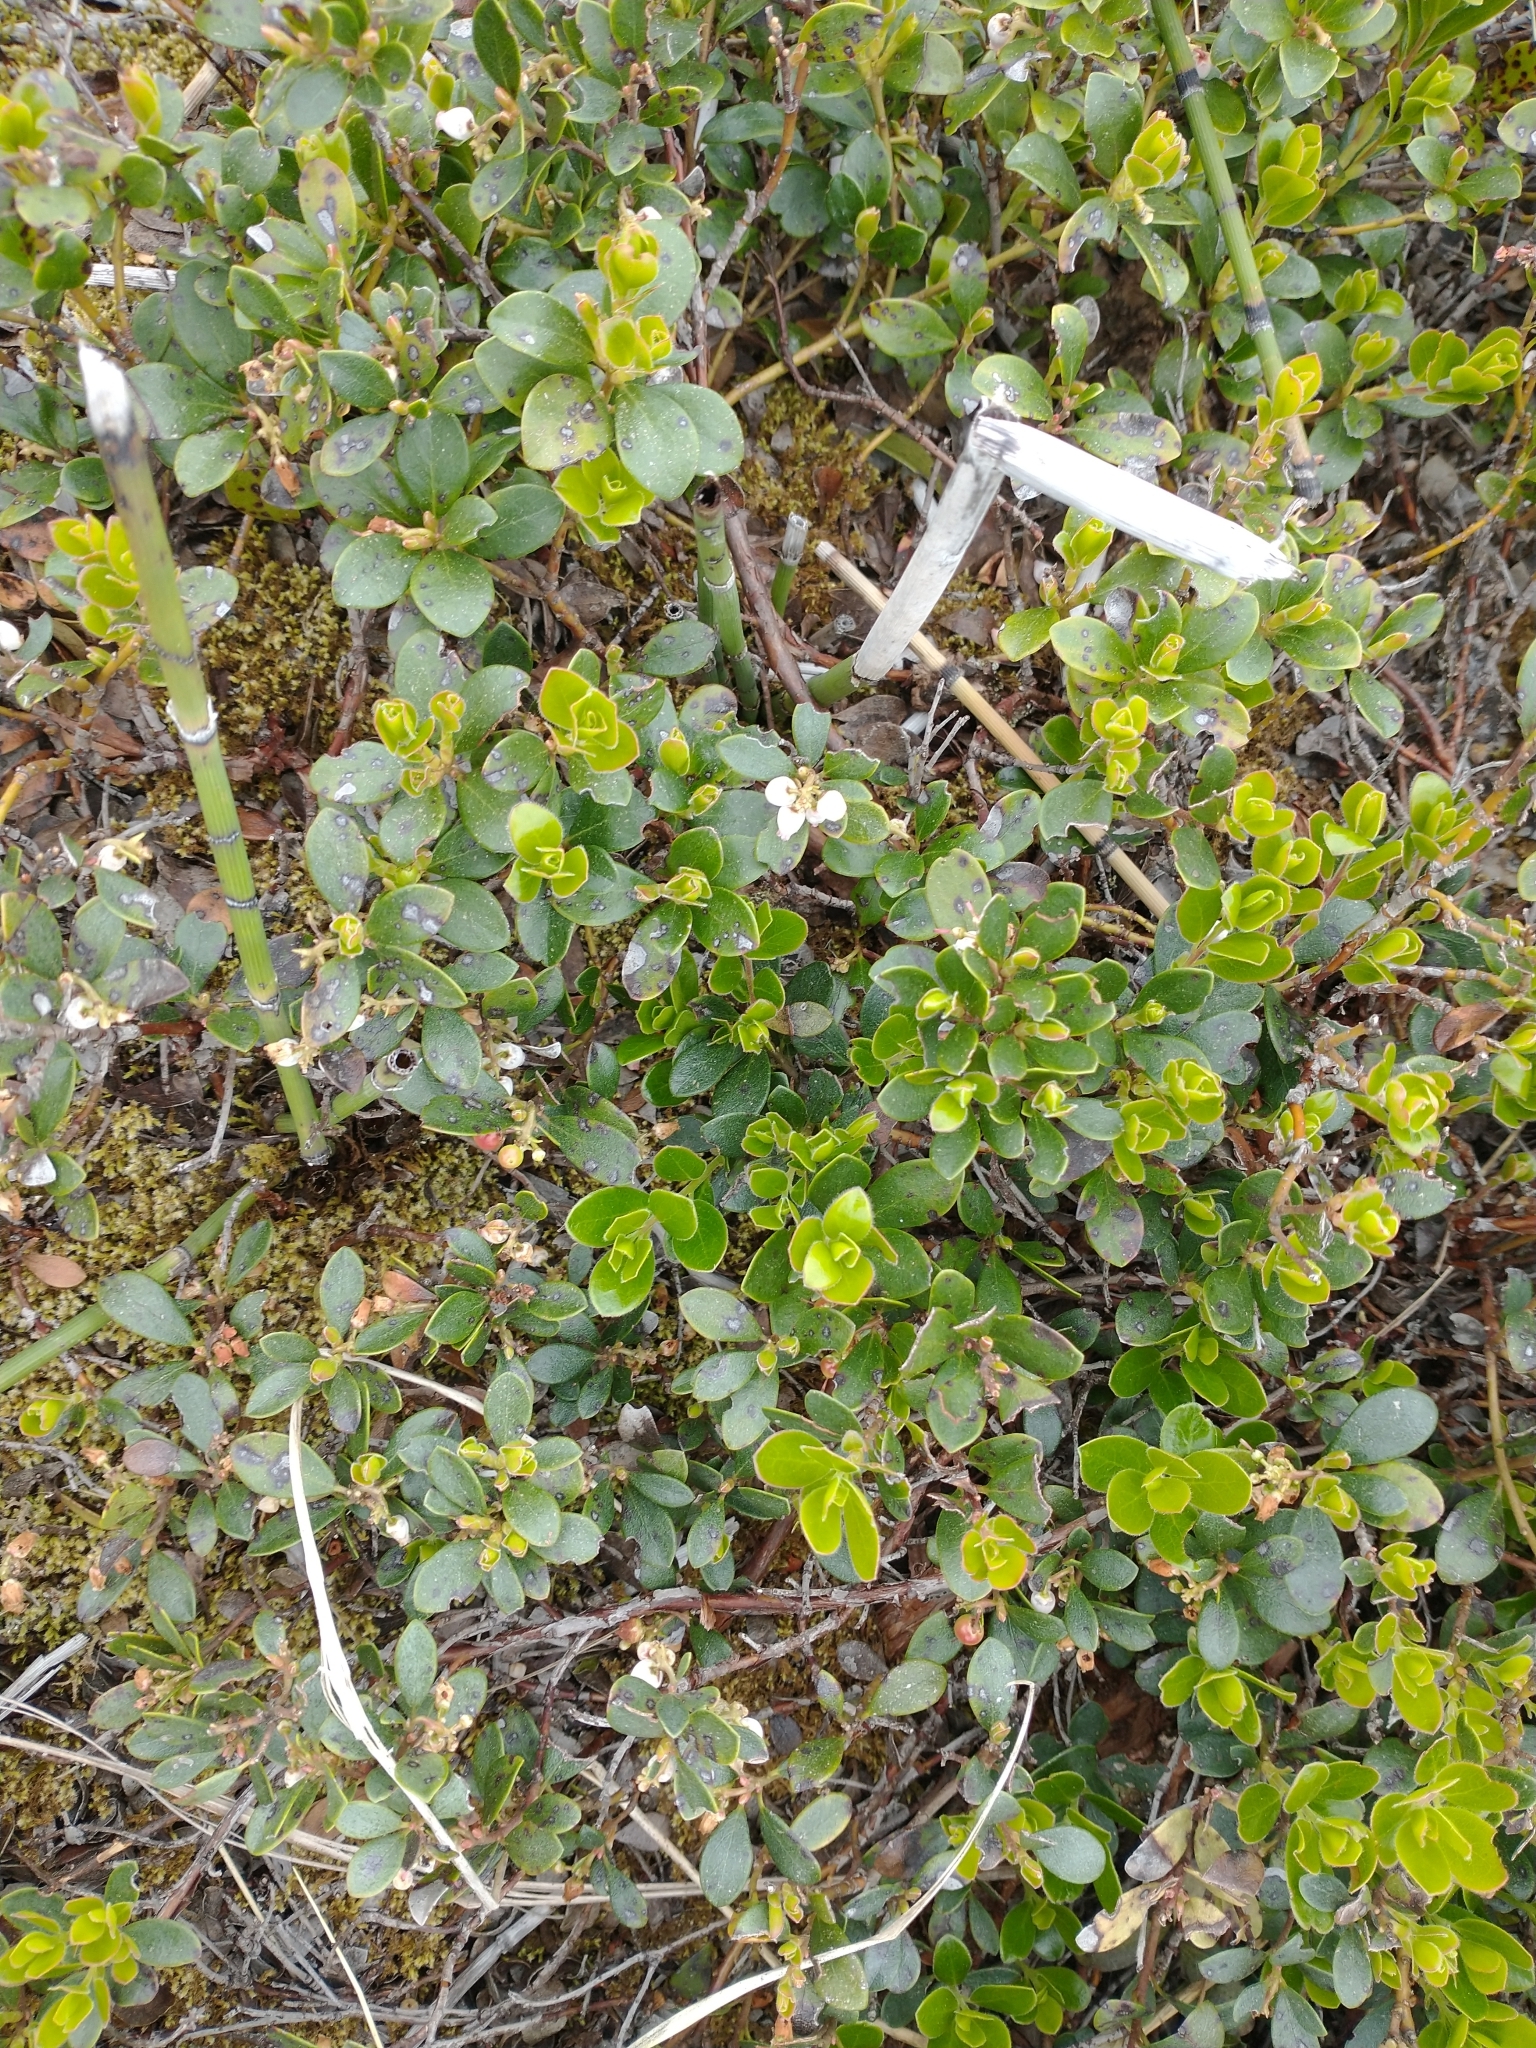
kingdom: Plantae
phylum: Tracheophyta
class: Magnoliopsida
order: Ericales
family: Ericaceae
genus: Arctostaphylos
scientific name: Arctostaphylos uva-ursi
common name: Bearberry
